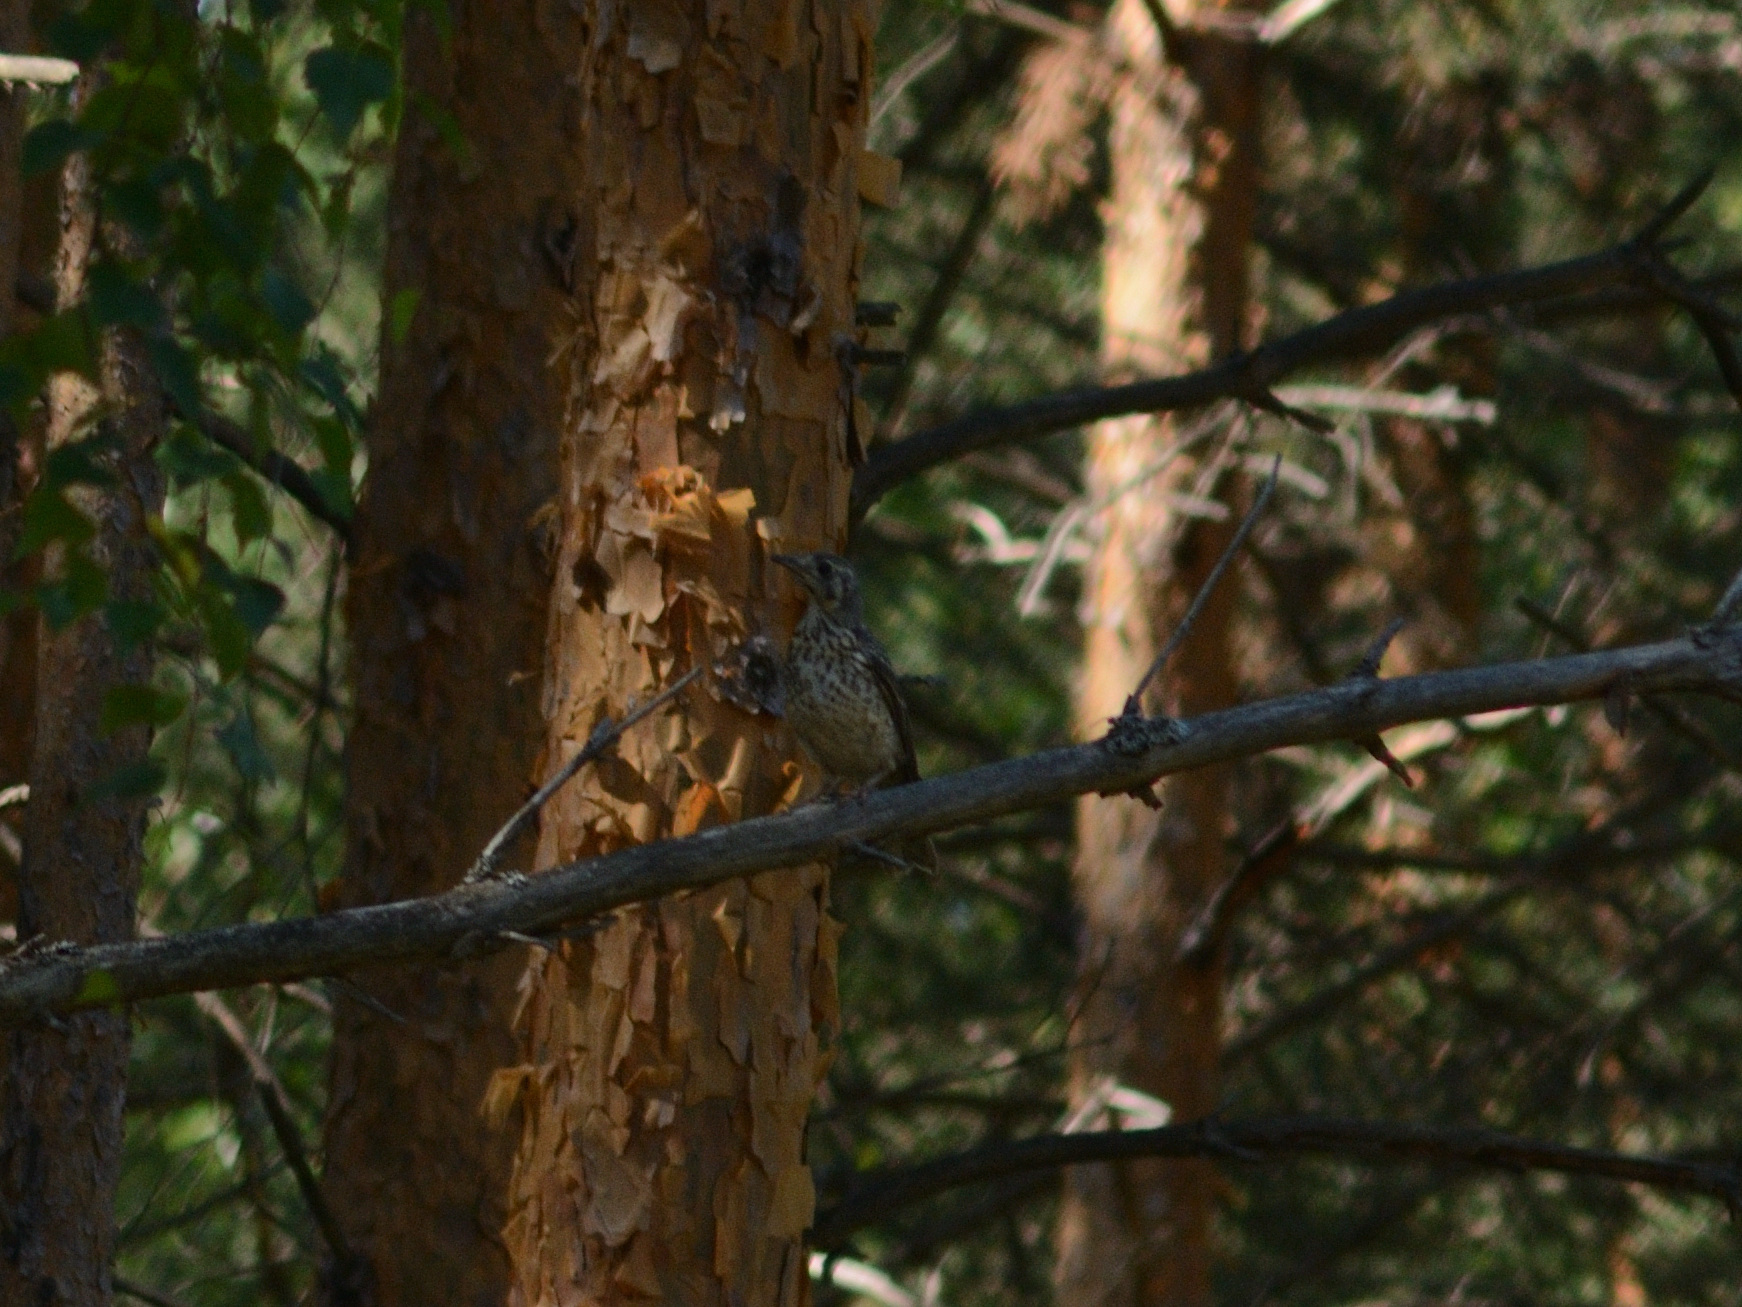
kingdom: Animalia
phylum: Chordata
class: Aves
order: Passeriformes
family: Turdidae
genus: Turdus
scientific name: Turdus viscivorus
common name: Mistle thrush
